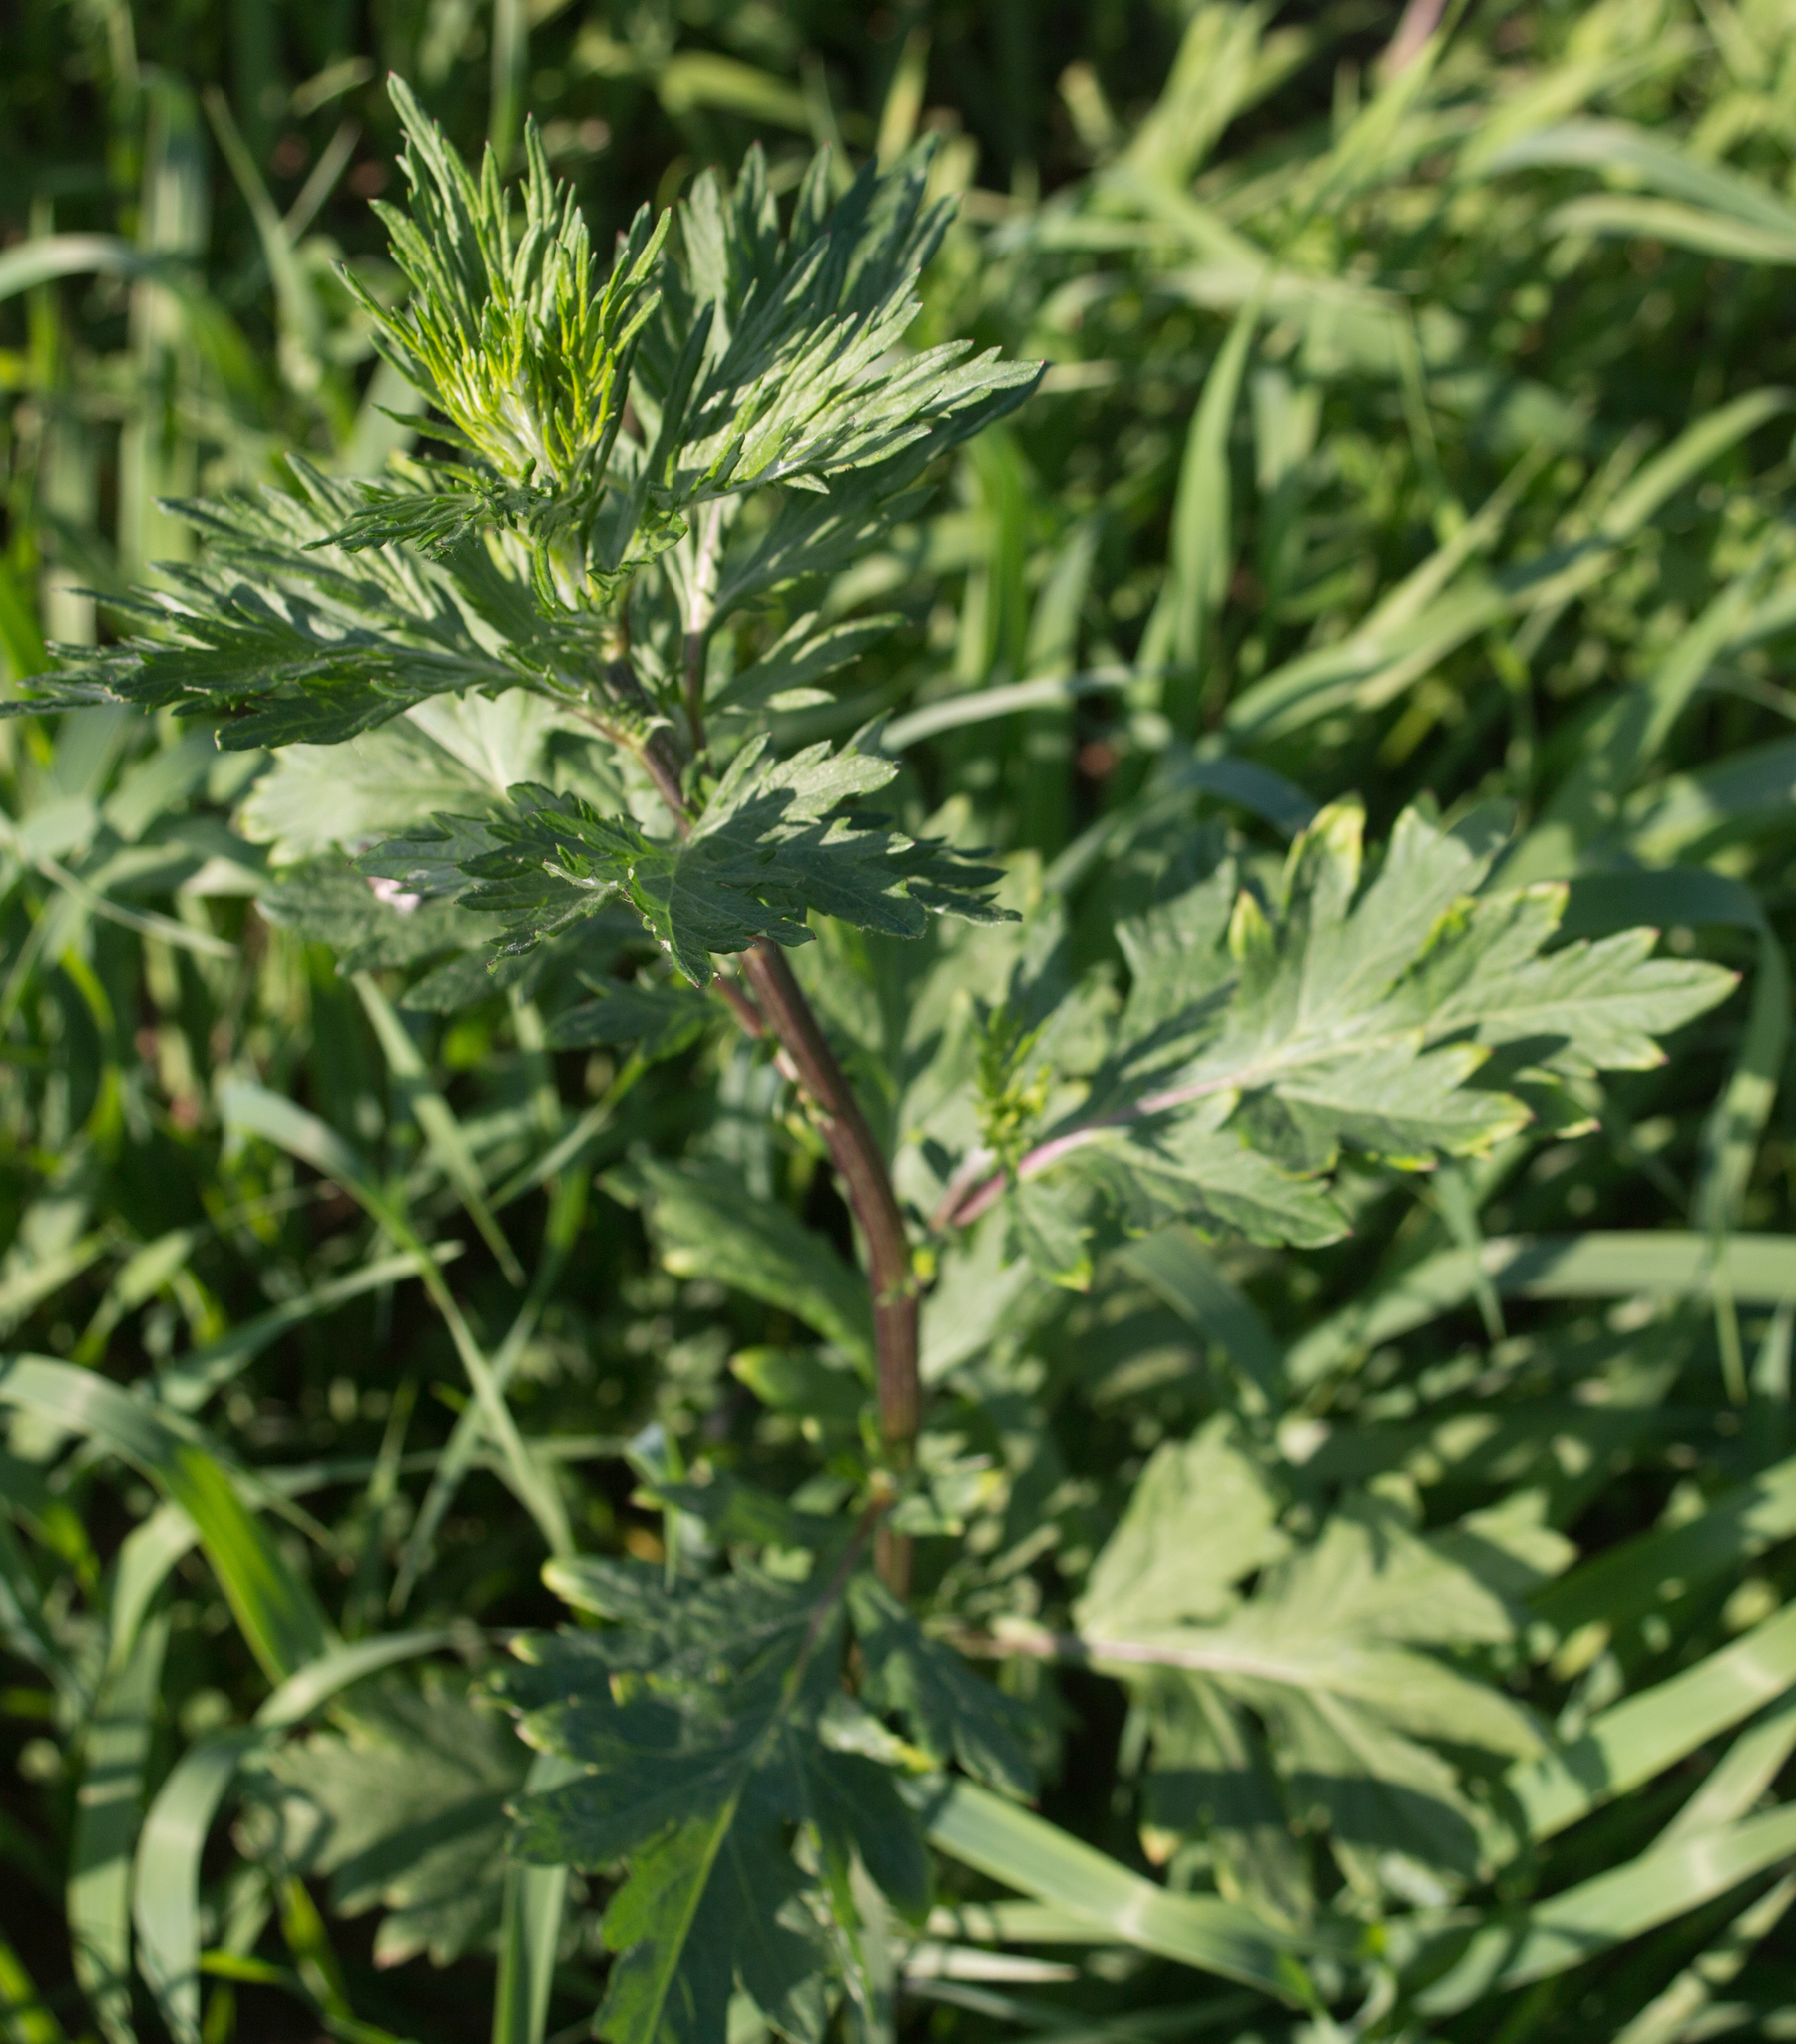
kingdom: Plantae
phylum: Tracheophyta
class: Magnoliopsida
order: Asterales
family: Asteraceae
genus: Artemisia
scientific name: Artemisia vulgaris
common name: Mugwort
